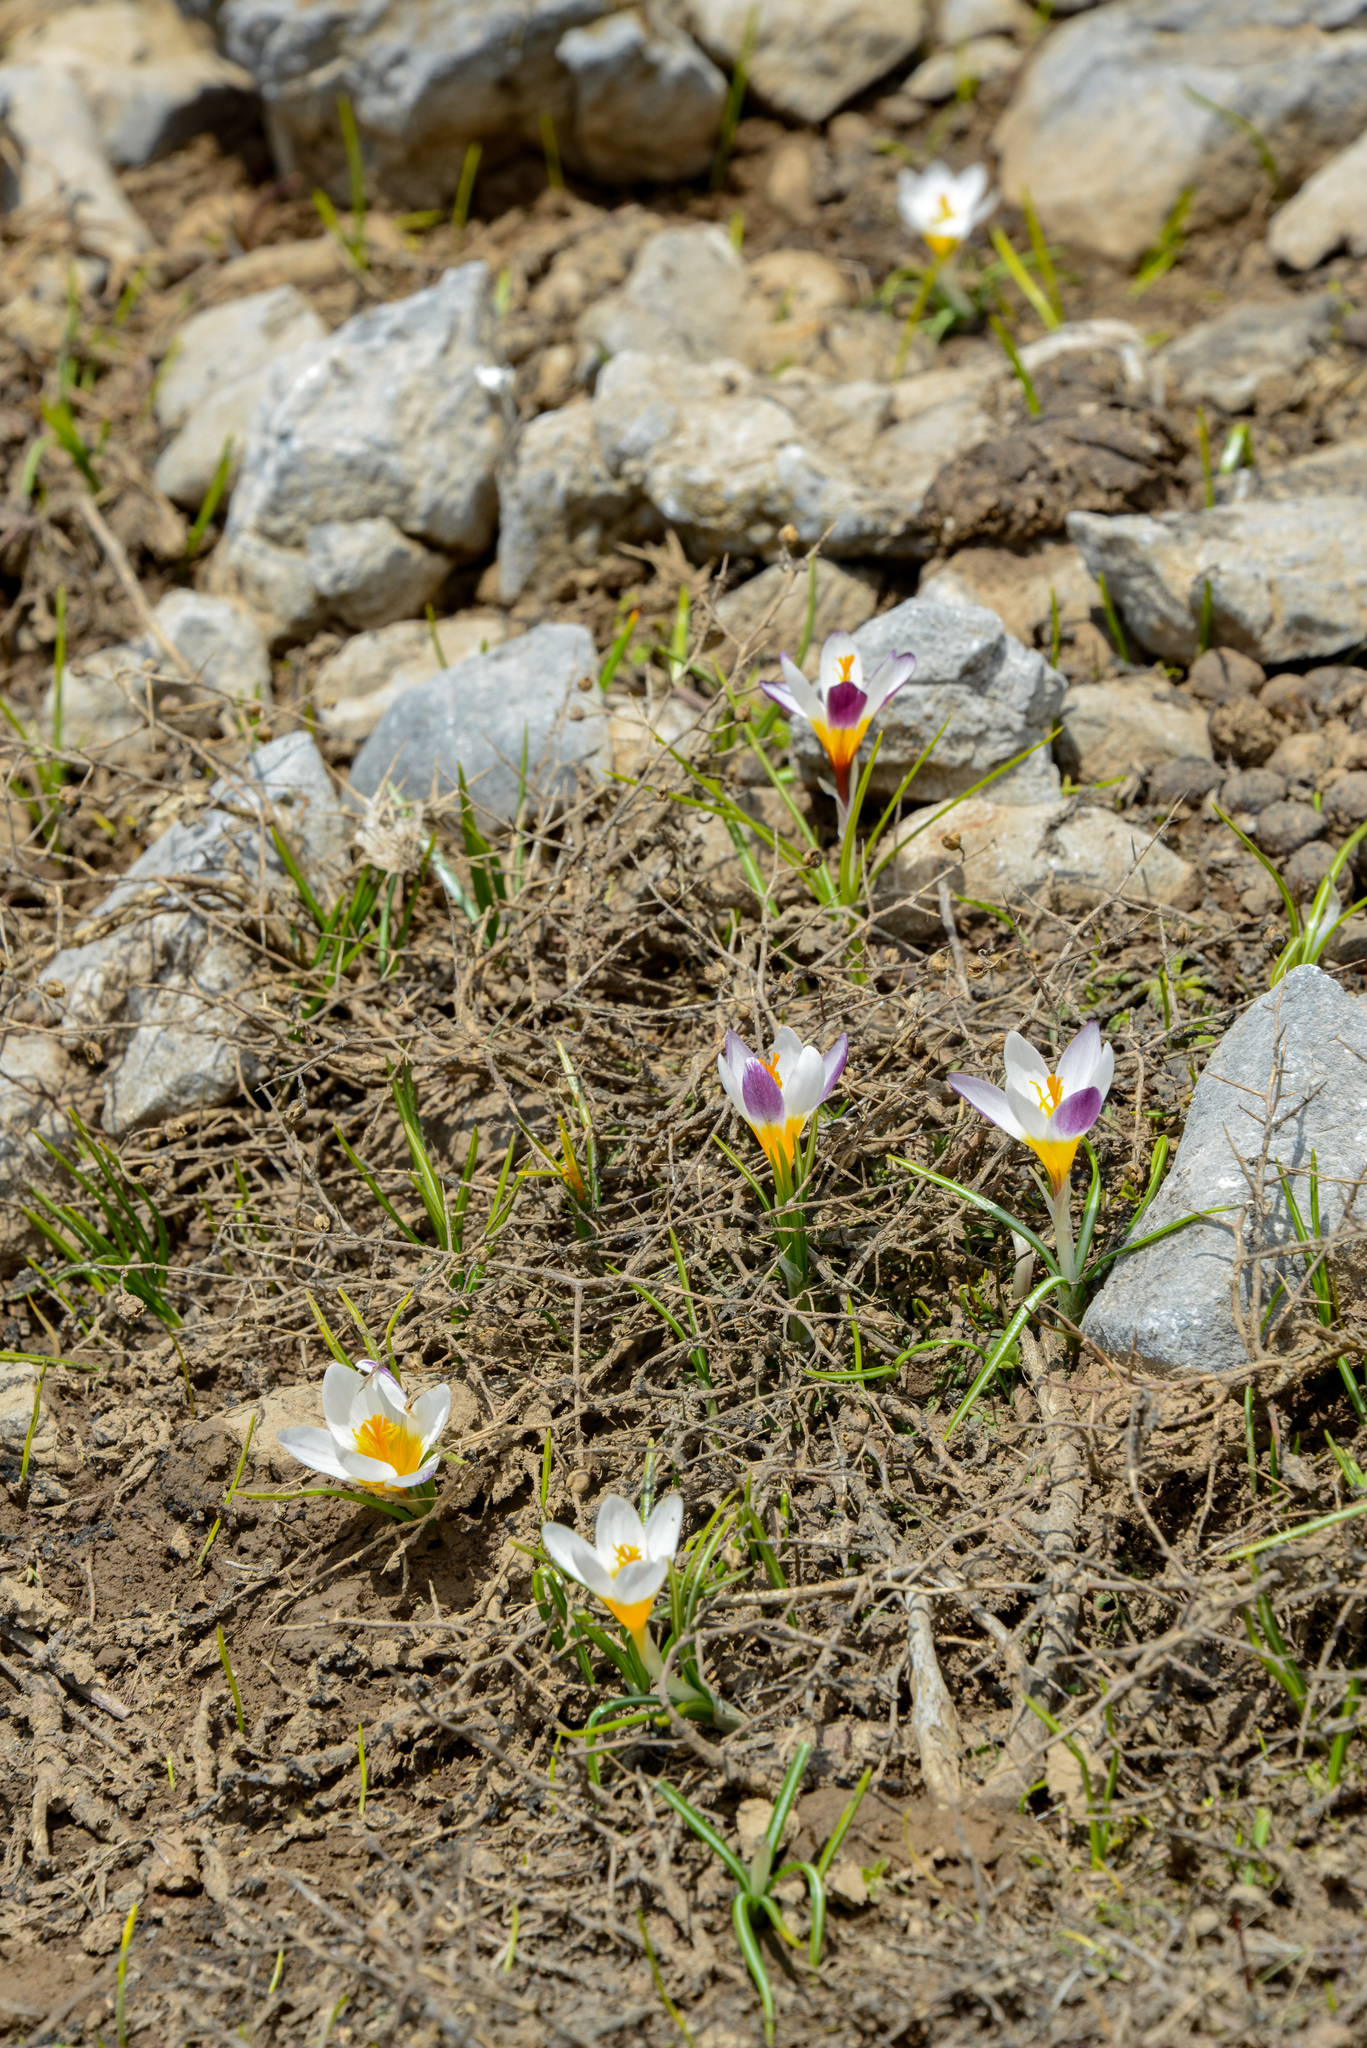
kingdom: Plantae
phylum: Tracheophyta
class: Liliopsida
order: Asparagales
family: Iridaceae
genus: Crocus
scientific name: Crocus sieberi
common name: Sieber's crocus
